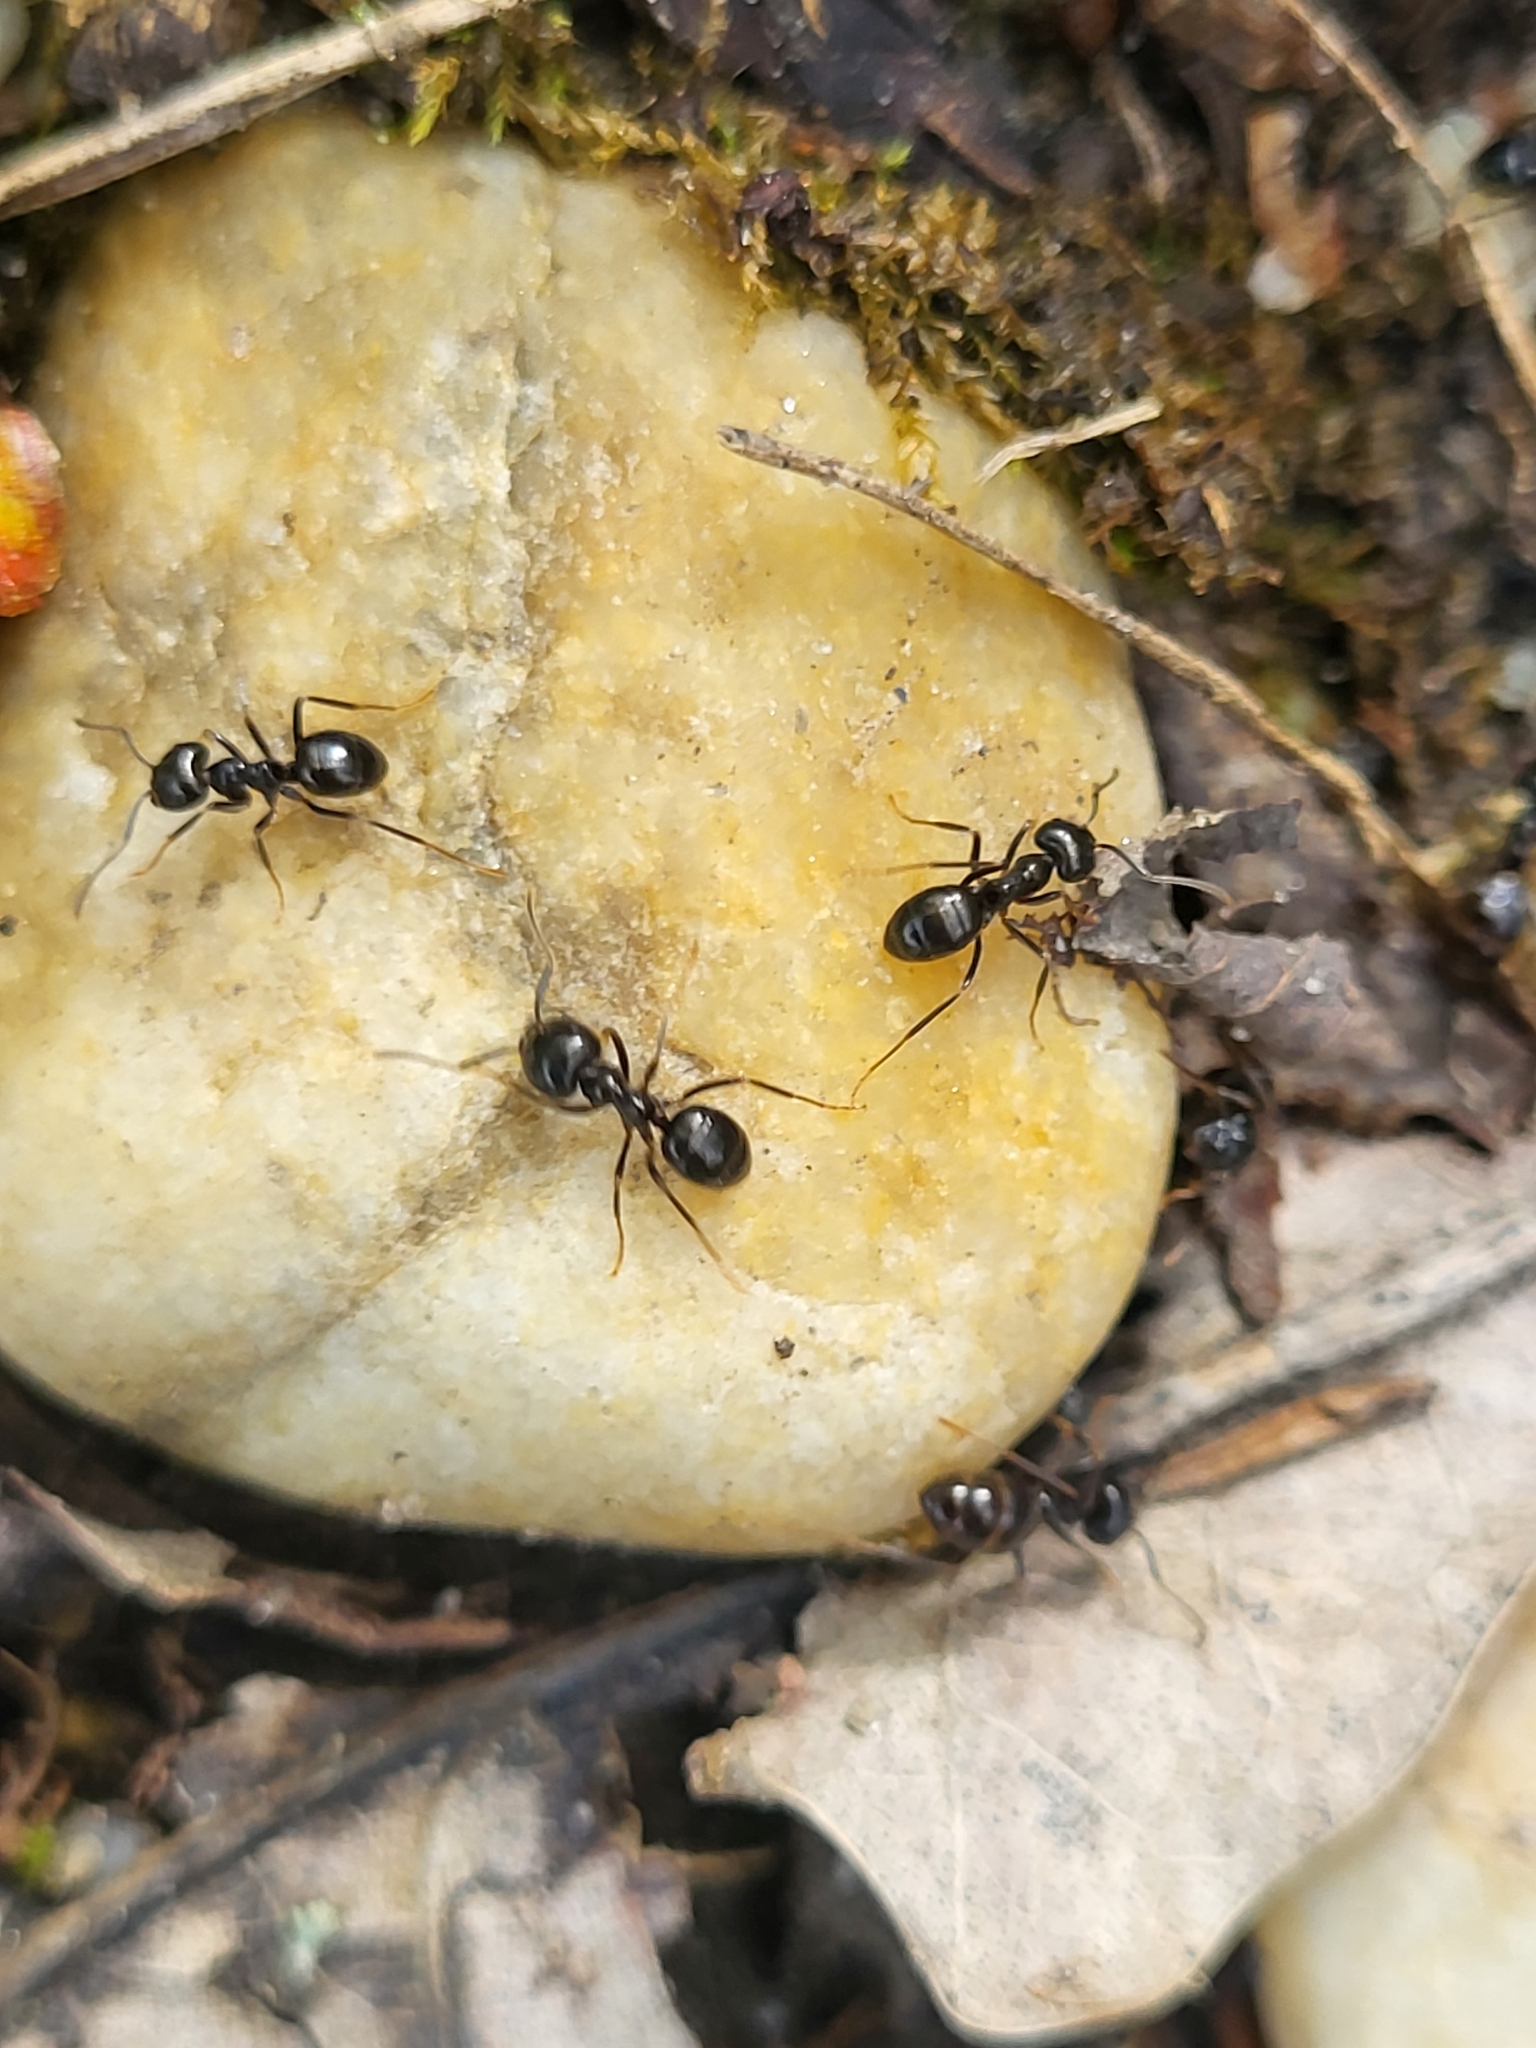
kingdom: Animalia
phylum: Arthropoda
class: Insecta
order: Hymenoptera
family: Formicidae
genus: Lasius
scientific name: Lasius fuliginosus
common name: Jet ant
